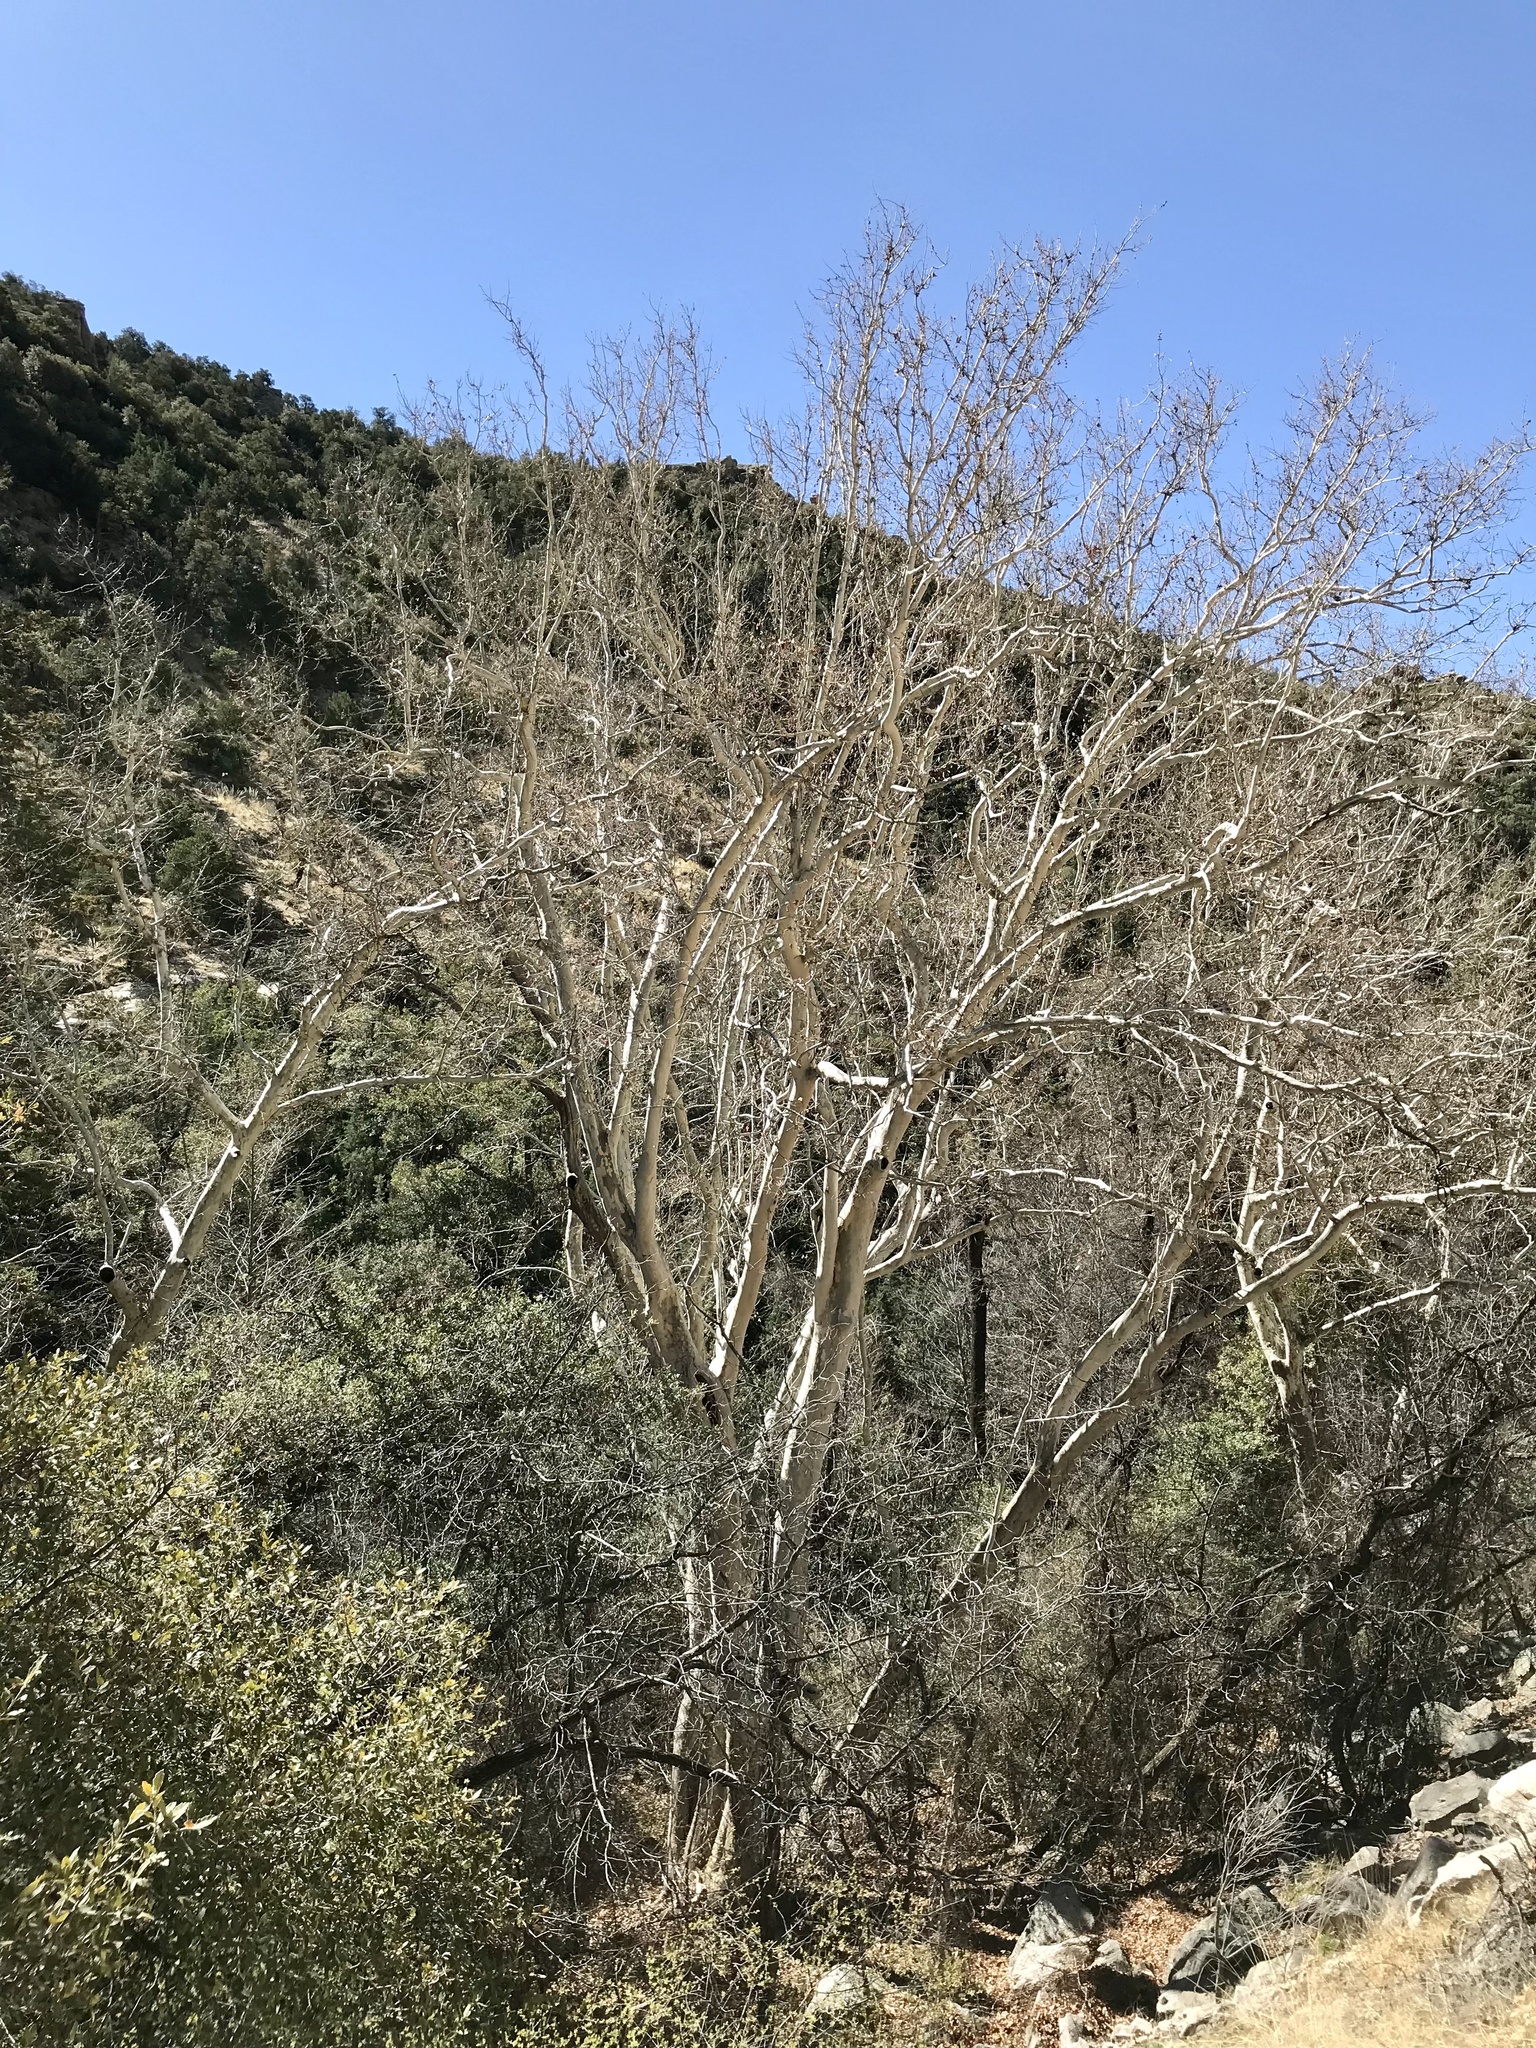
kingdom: Plantae
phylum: Tracheophyta
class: Magnoliopsida
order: Proteales
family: Platanaceae
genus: Platanus
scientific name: Platanus wrightii
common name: Arizona sycamore
